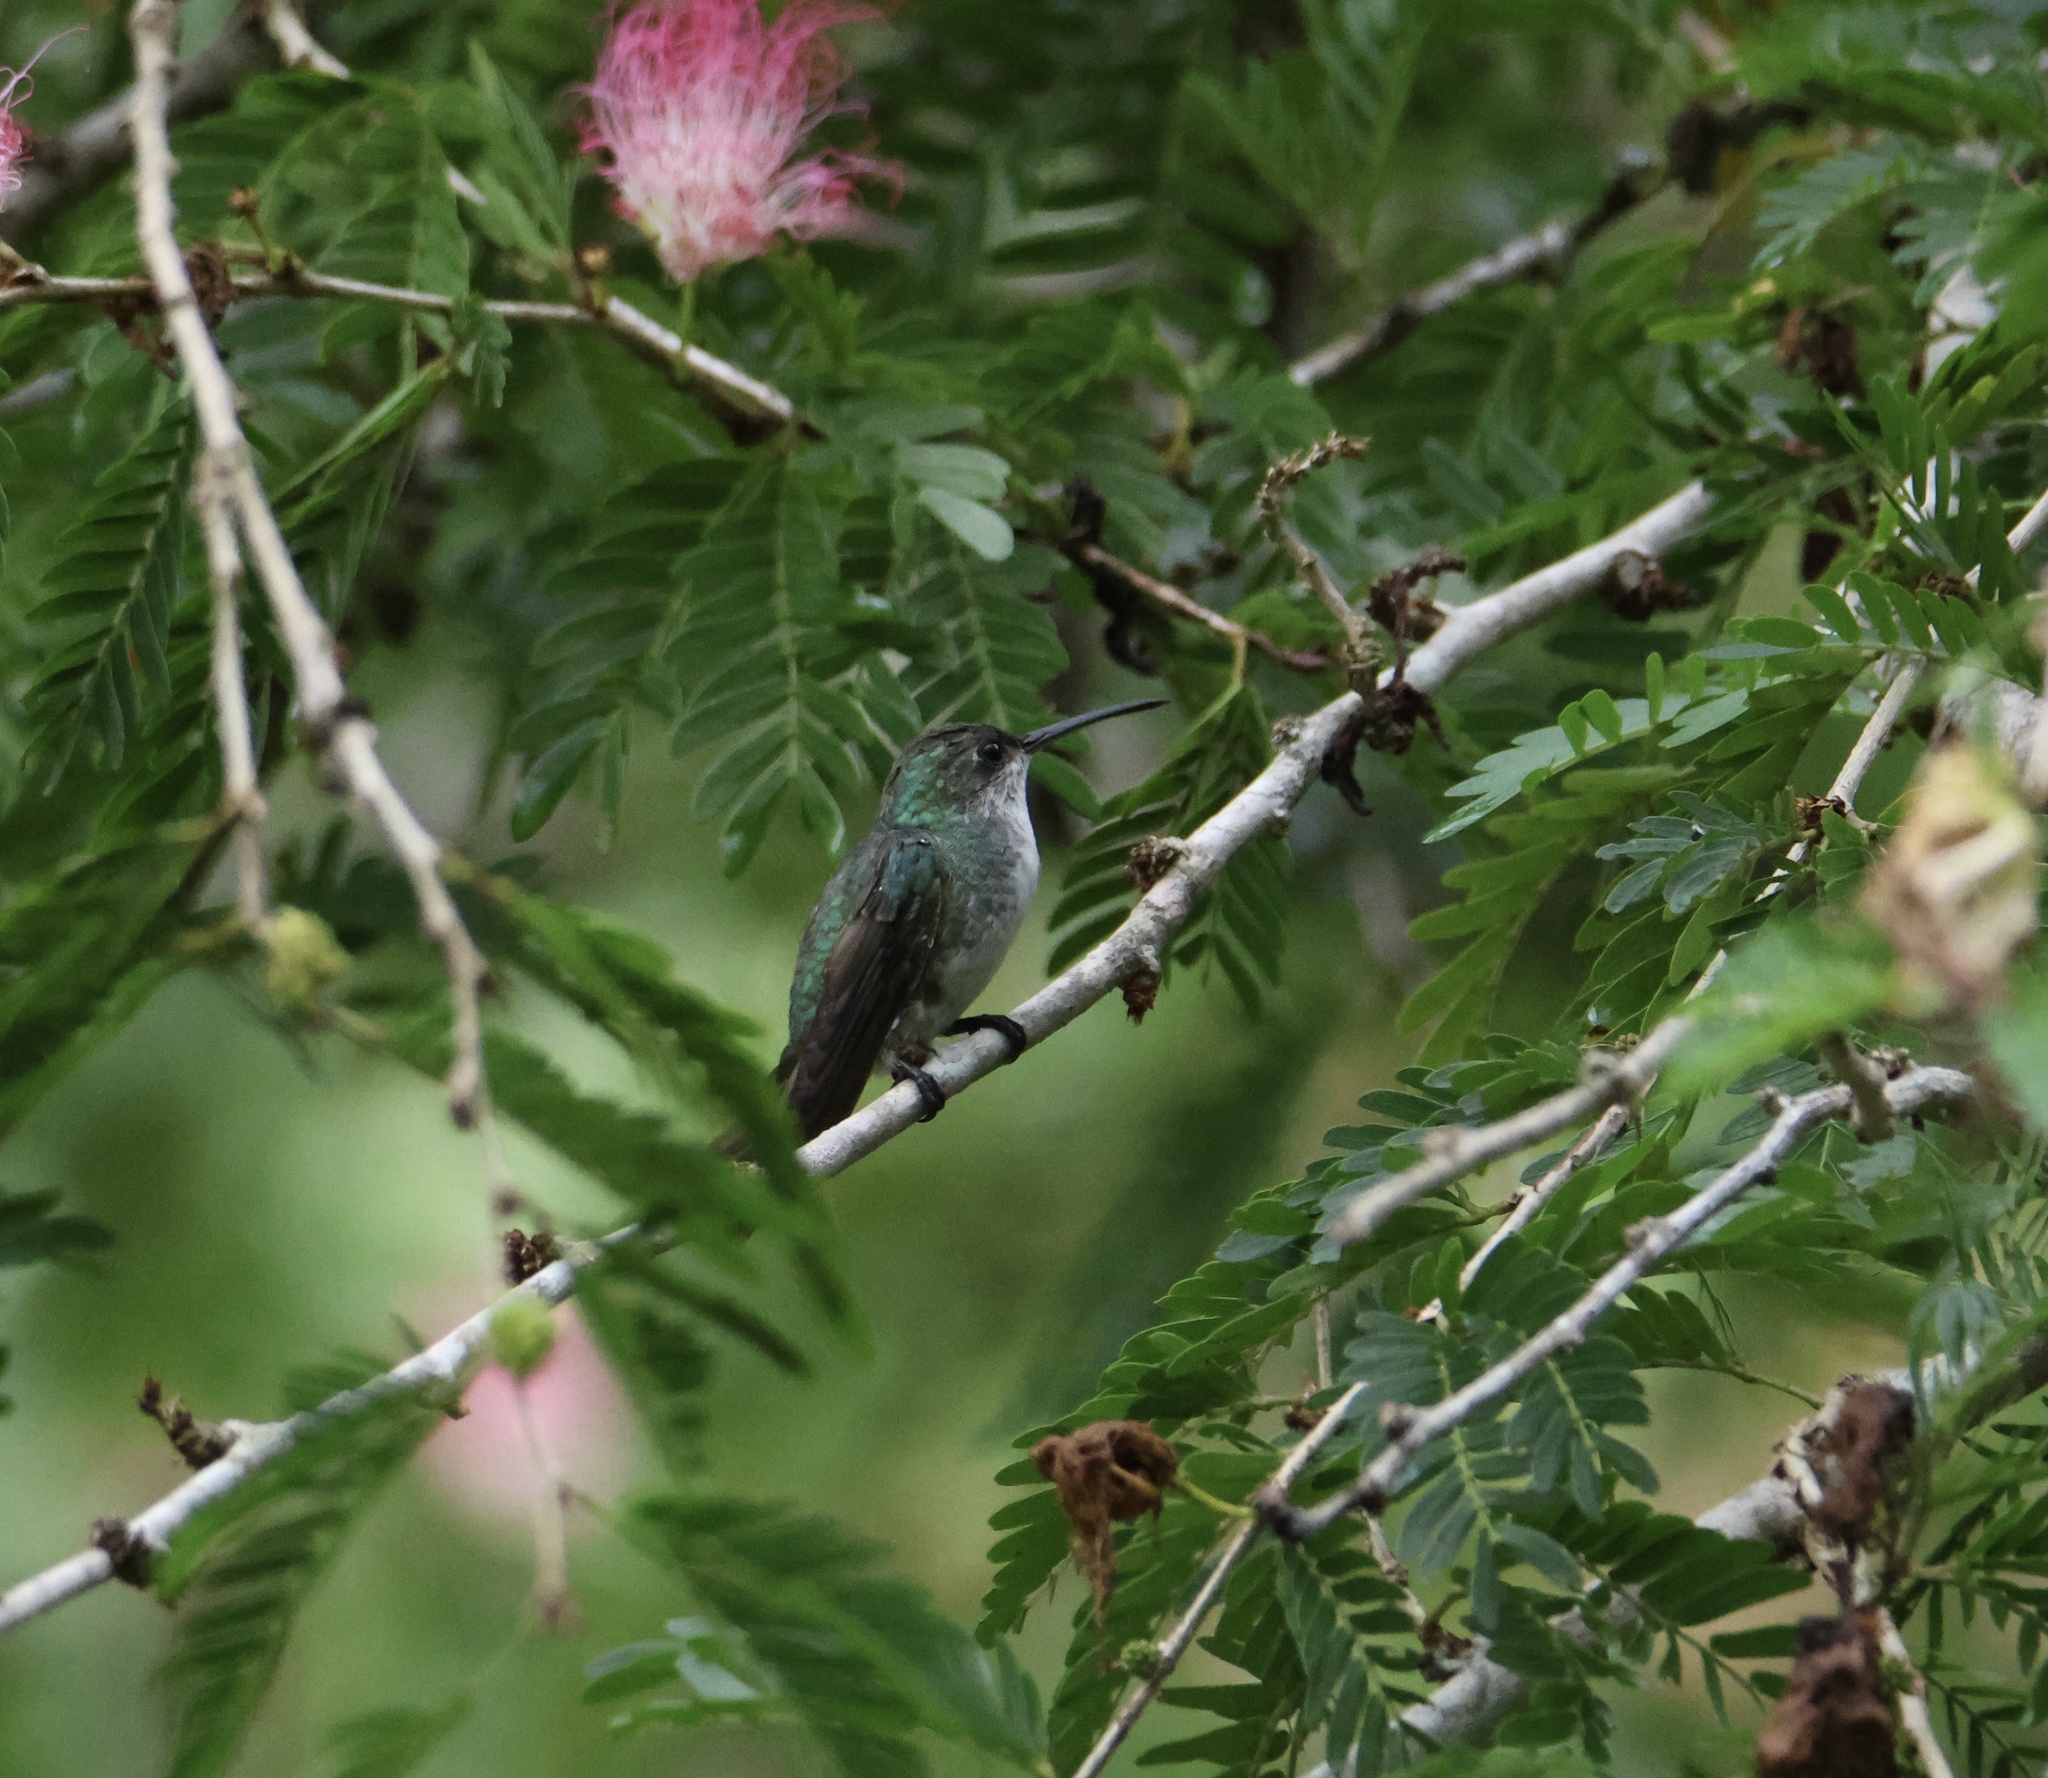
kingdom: Animalia
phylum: Chordata
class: Aves
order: Apodiformes
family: Trochilidae
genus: Chrysuronia
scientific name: Chrysuronia coeruleogularis
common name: Sapphire-throated hummingbird
